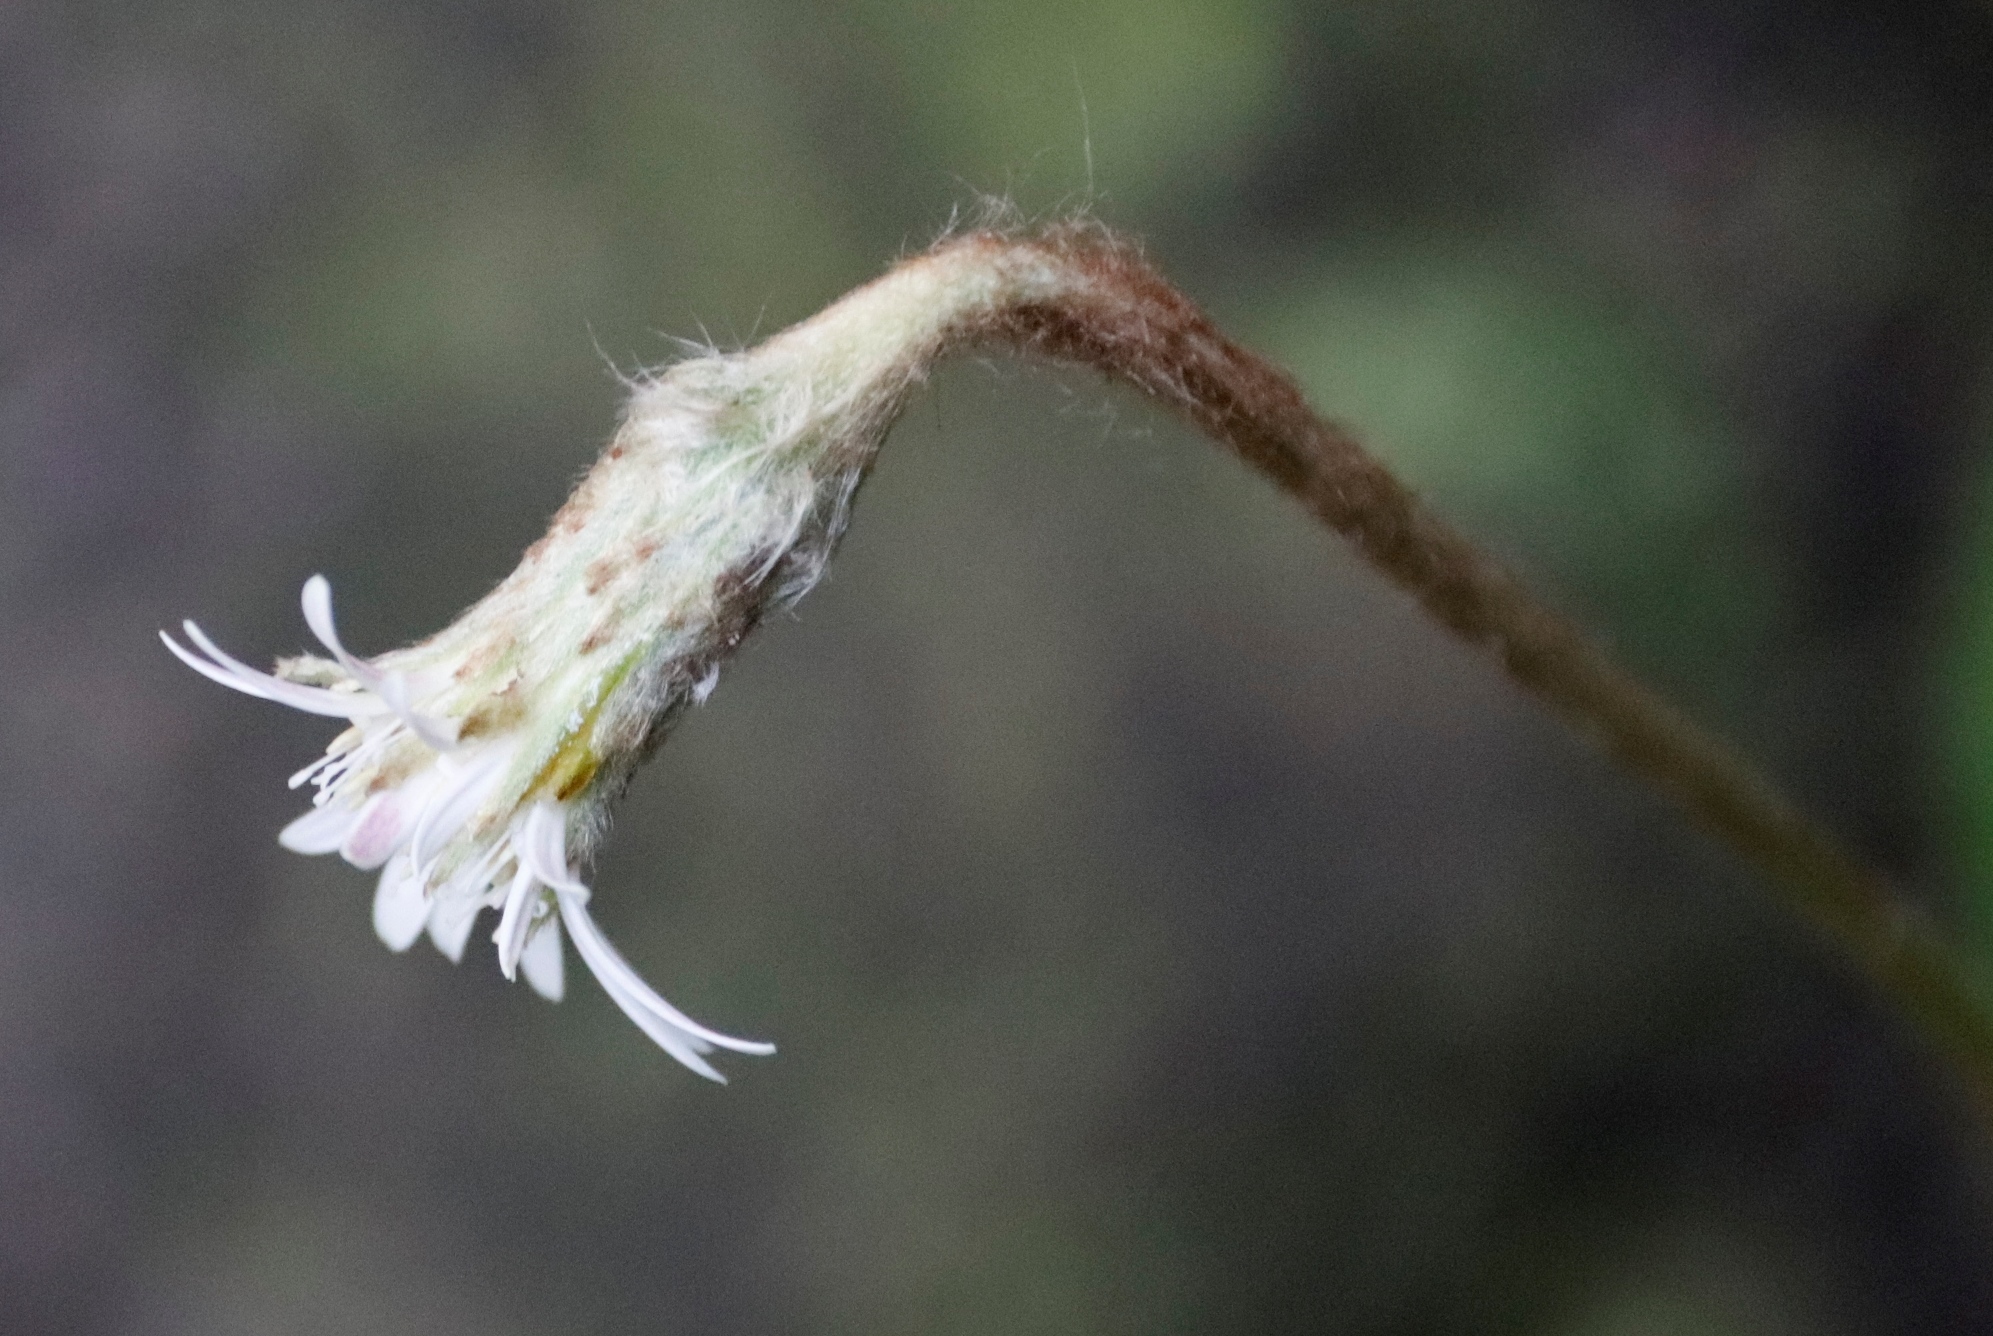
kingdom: Plantae
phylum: Tracheophyta
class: Magnoliopsida
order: Asterales
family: Asteraceae
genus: Piloselloides
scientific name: Piloselloides cordata
